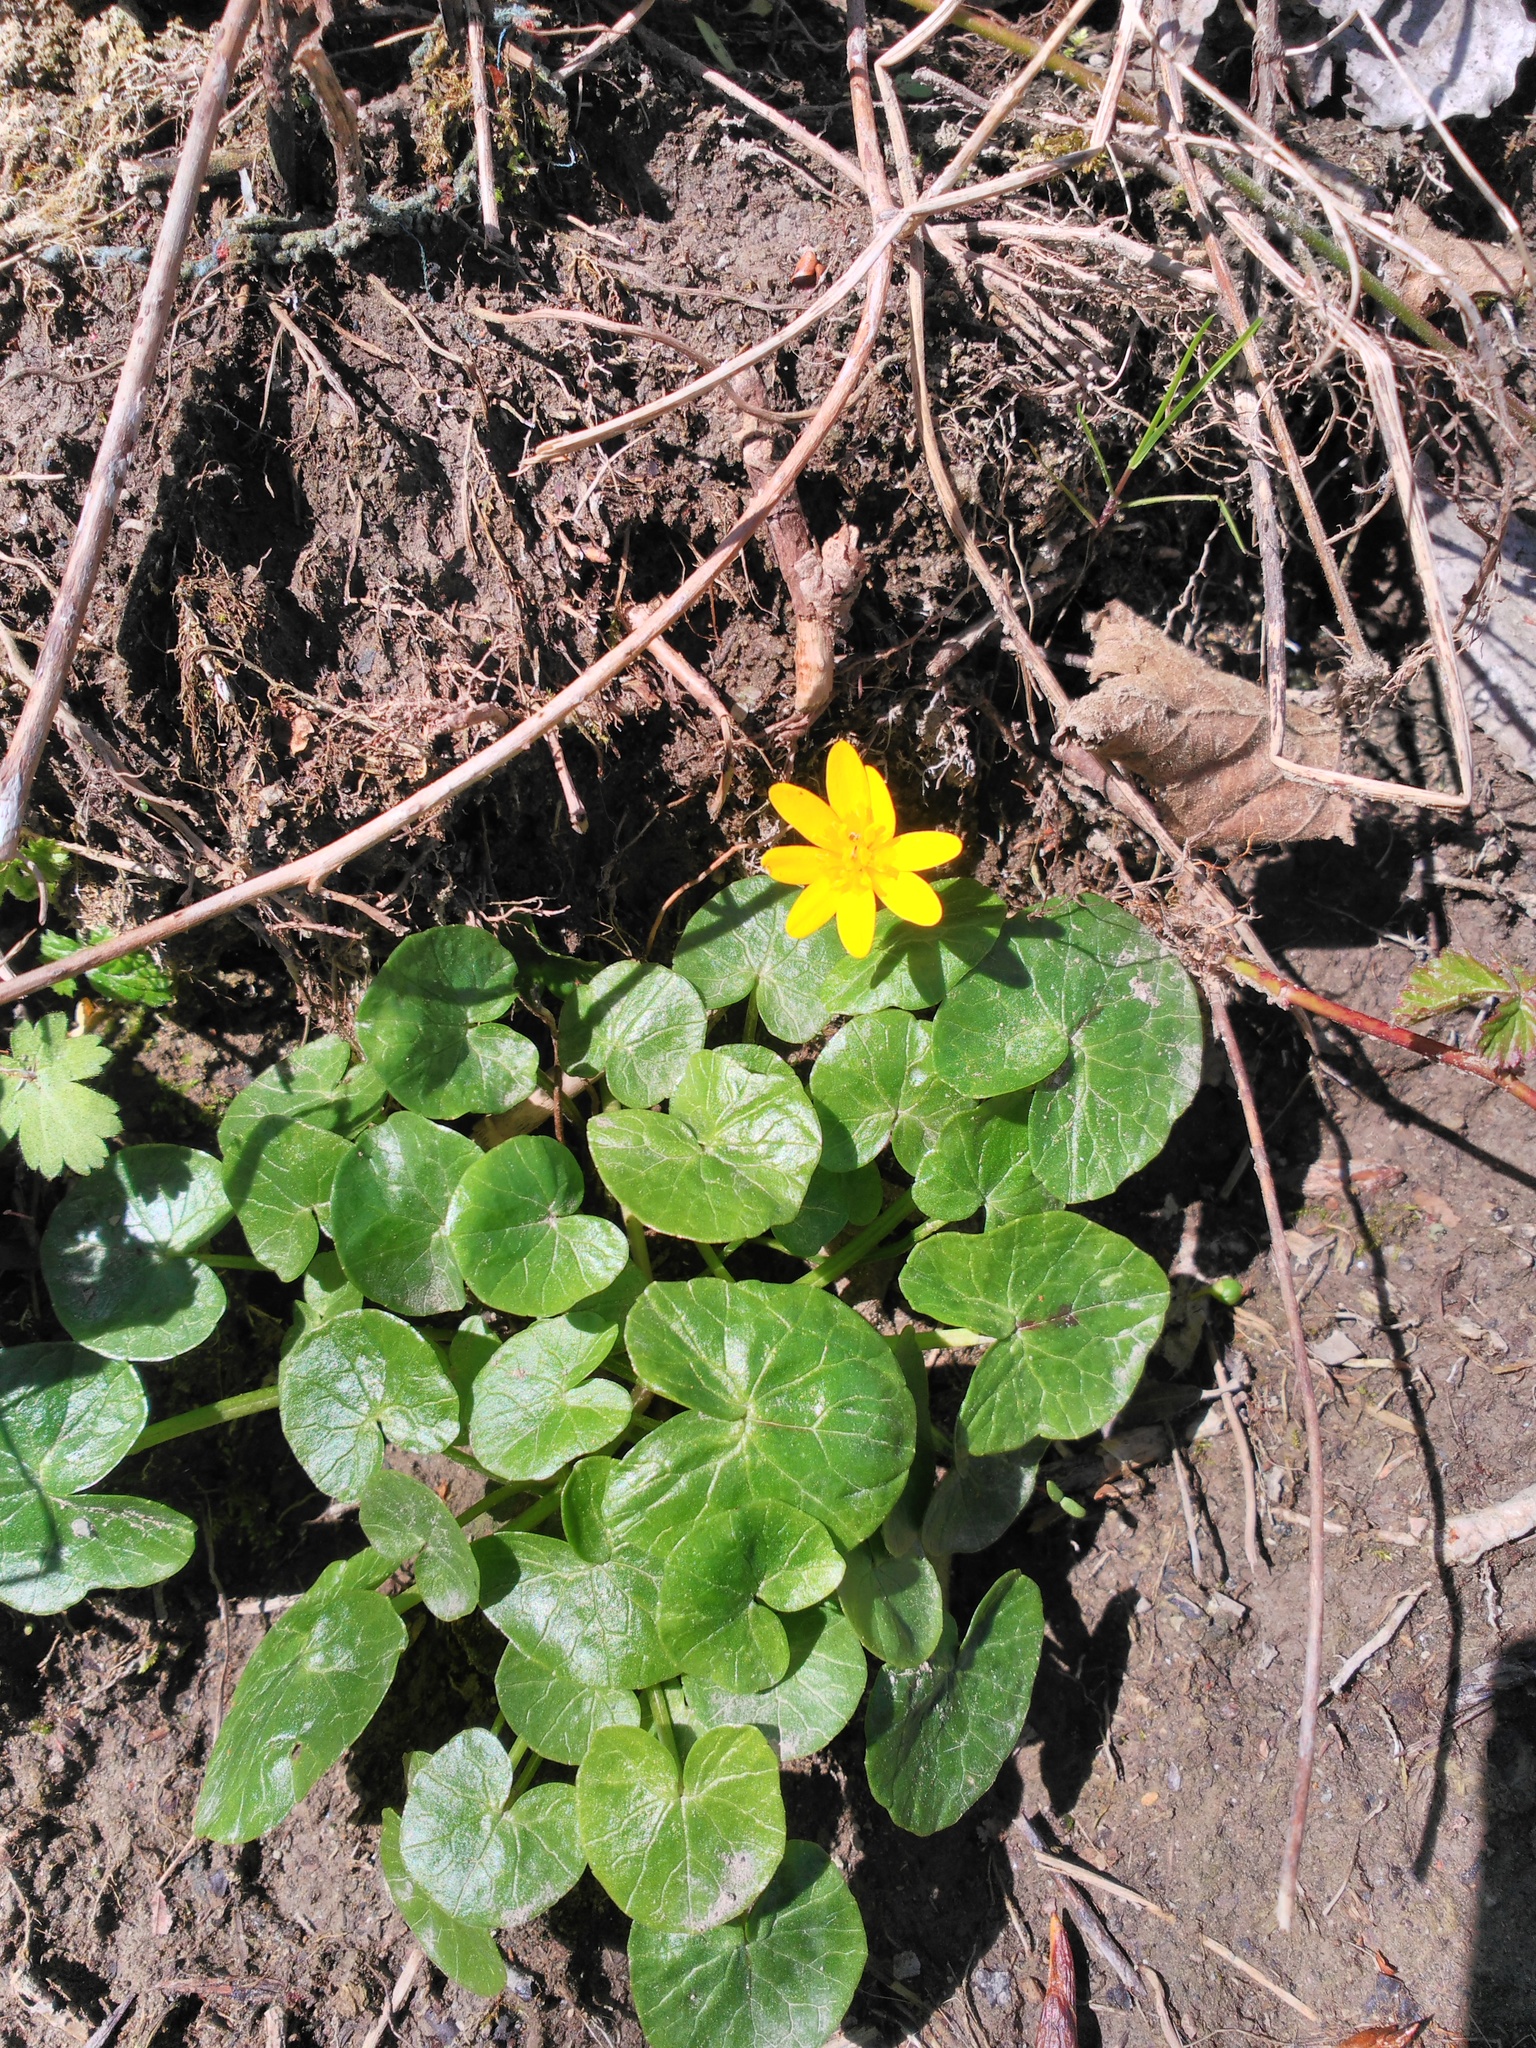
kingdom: Plantae
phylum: Tracheophyta
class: Magnoliopsida
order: Ranunculales
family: Ranunculaceae
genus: Ficaria
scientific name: Ficaria verna
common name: Lesser celandine
